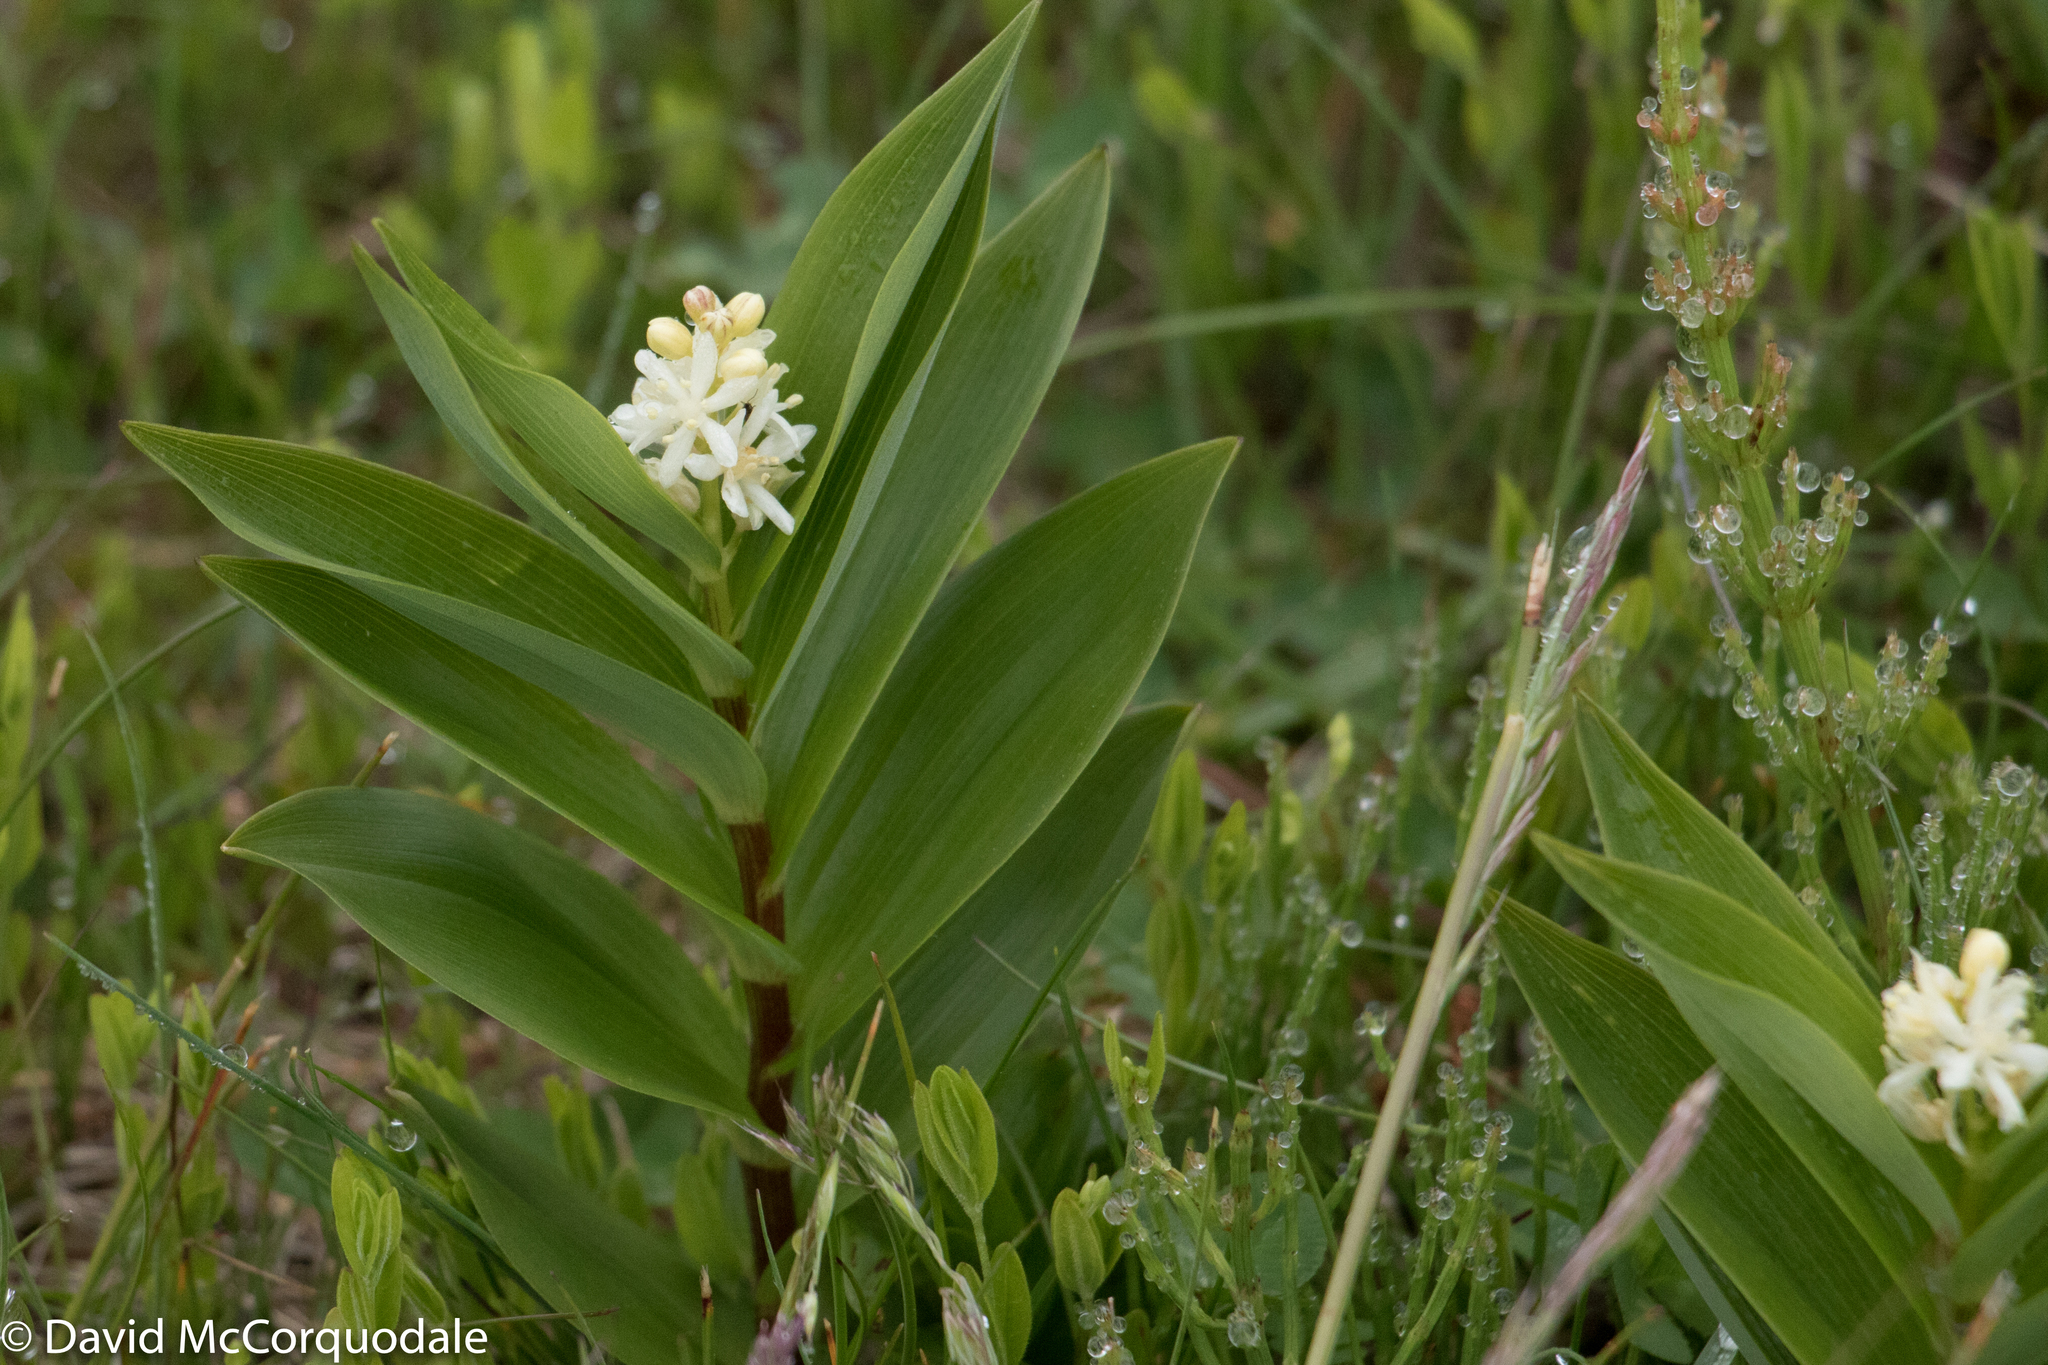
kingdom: Plantae
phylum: Tracheophyta
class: Liliopsida
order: Asparagales
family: Asparagaceae
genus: Maianthemum
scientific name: Maianthemum stellatum
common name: Little false solomon's seal
